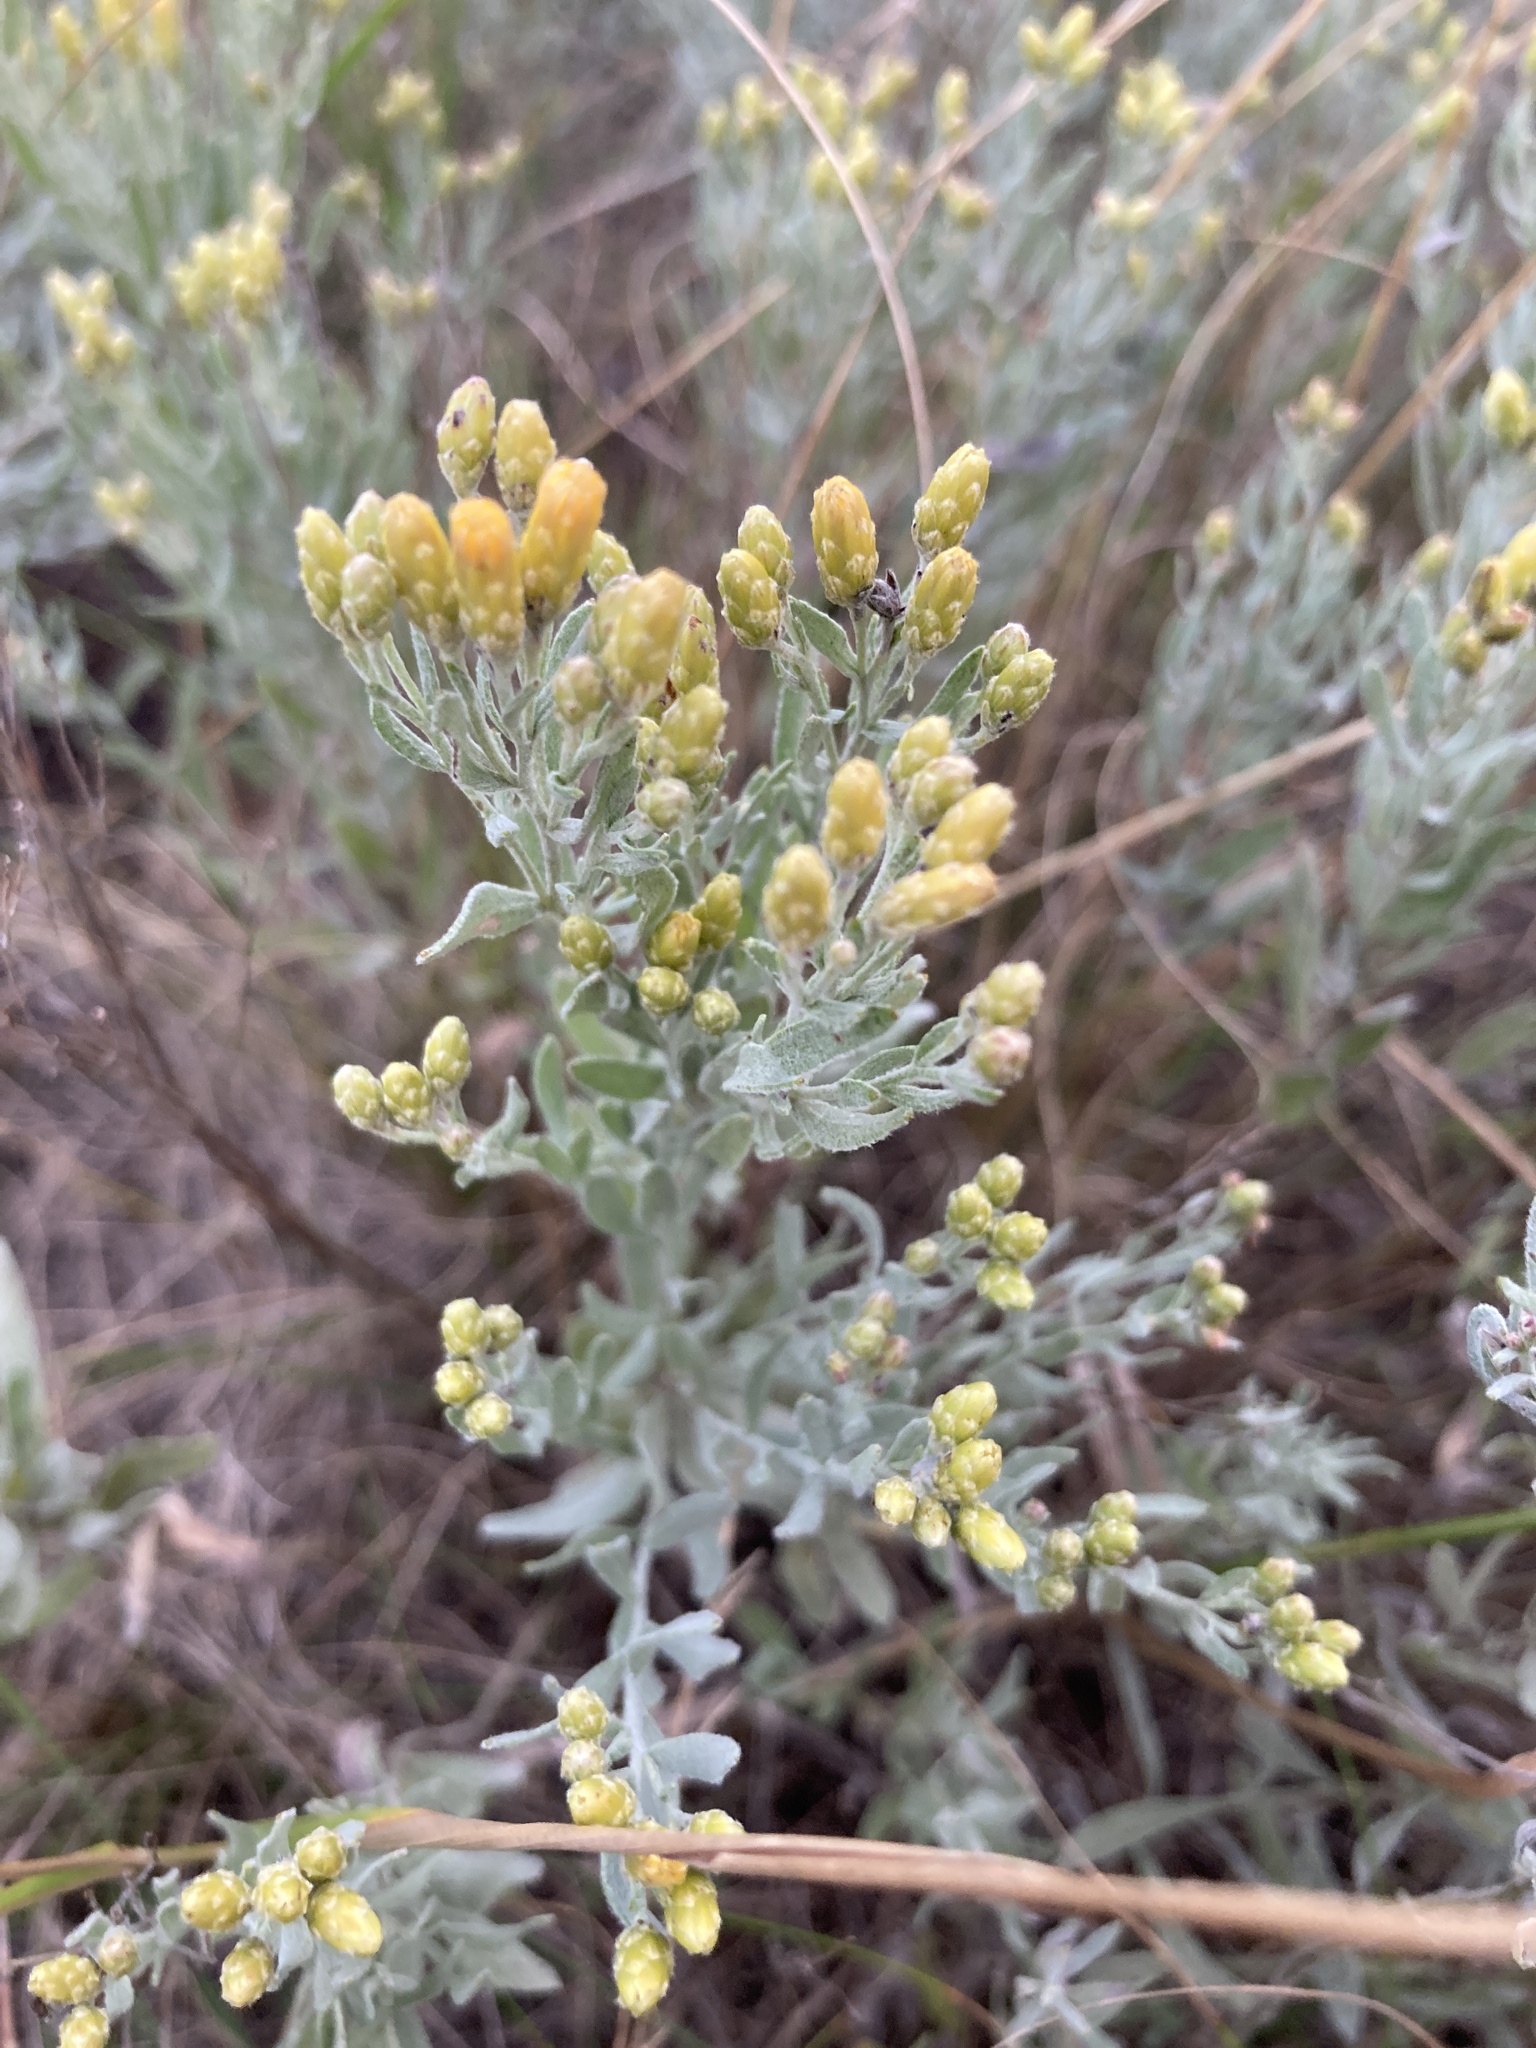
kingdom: Plantae
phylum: Tracheophyta
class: Magnoliopsida
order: Asterales
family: Asteraceae
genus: Galatella
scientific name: Galatella villosa
